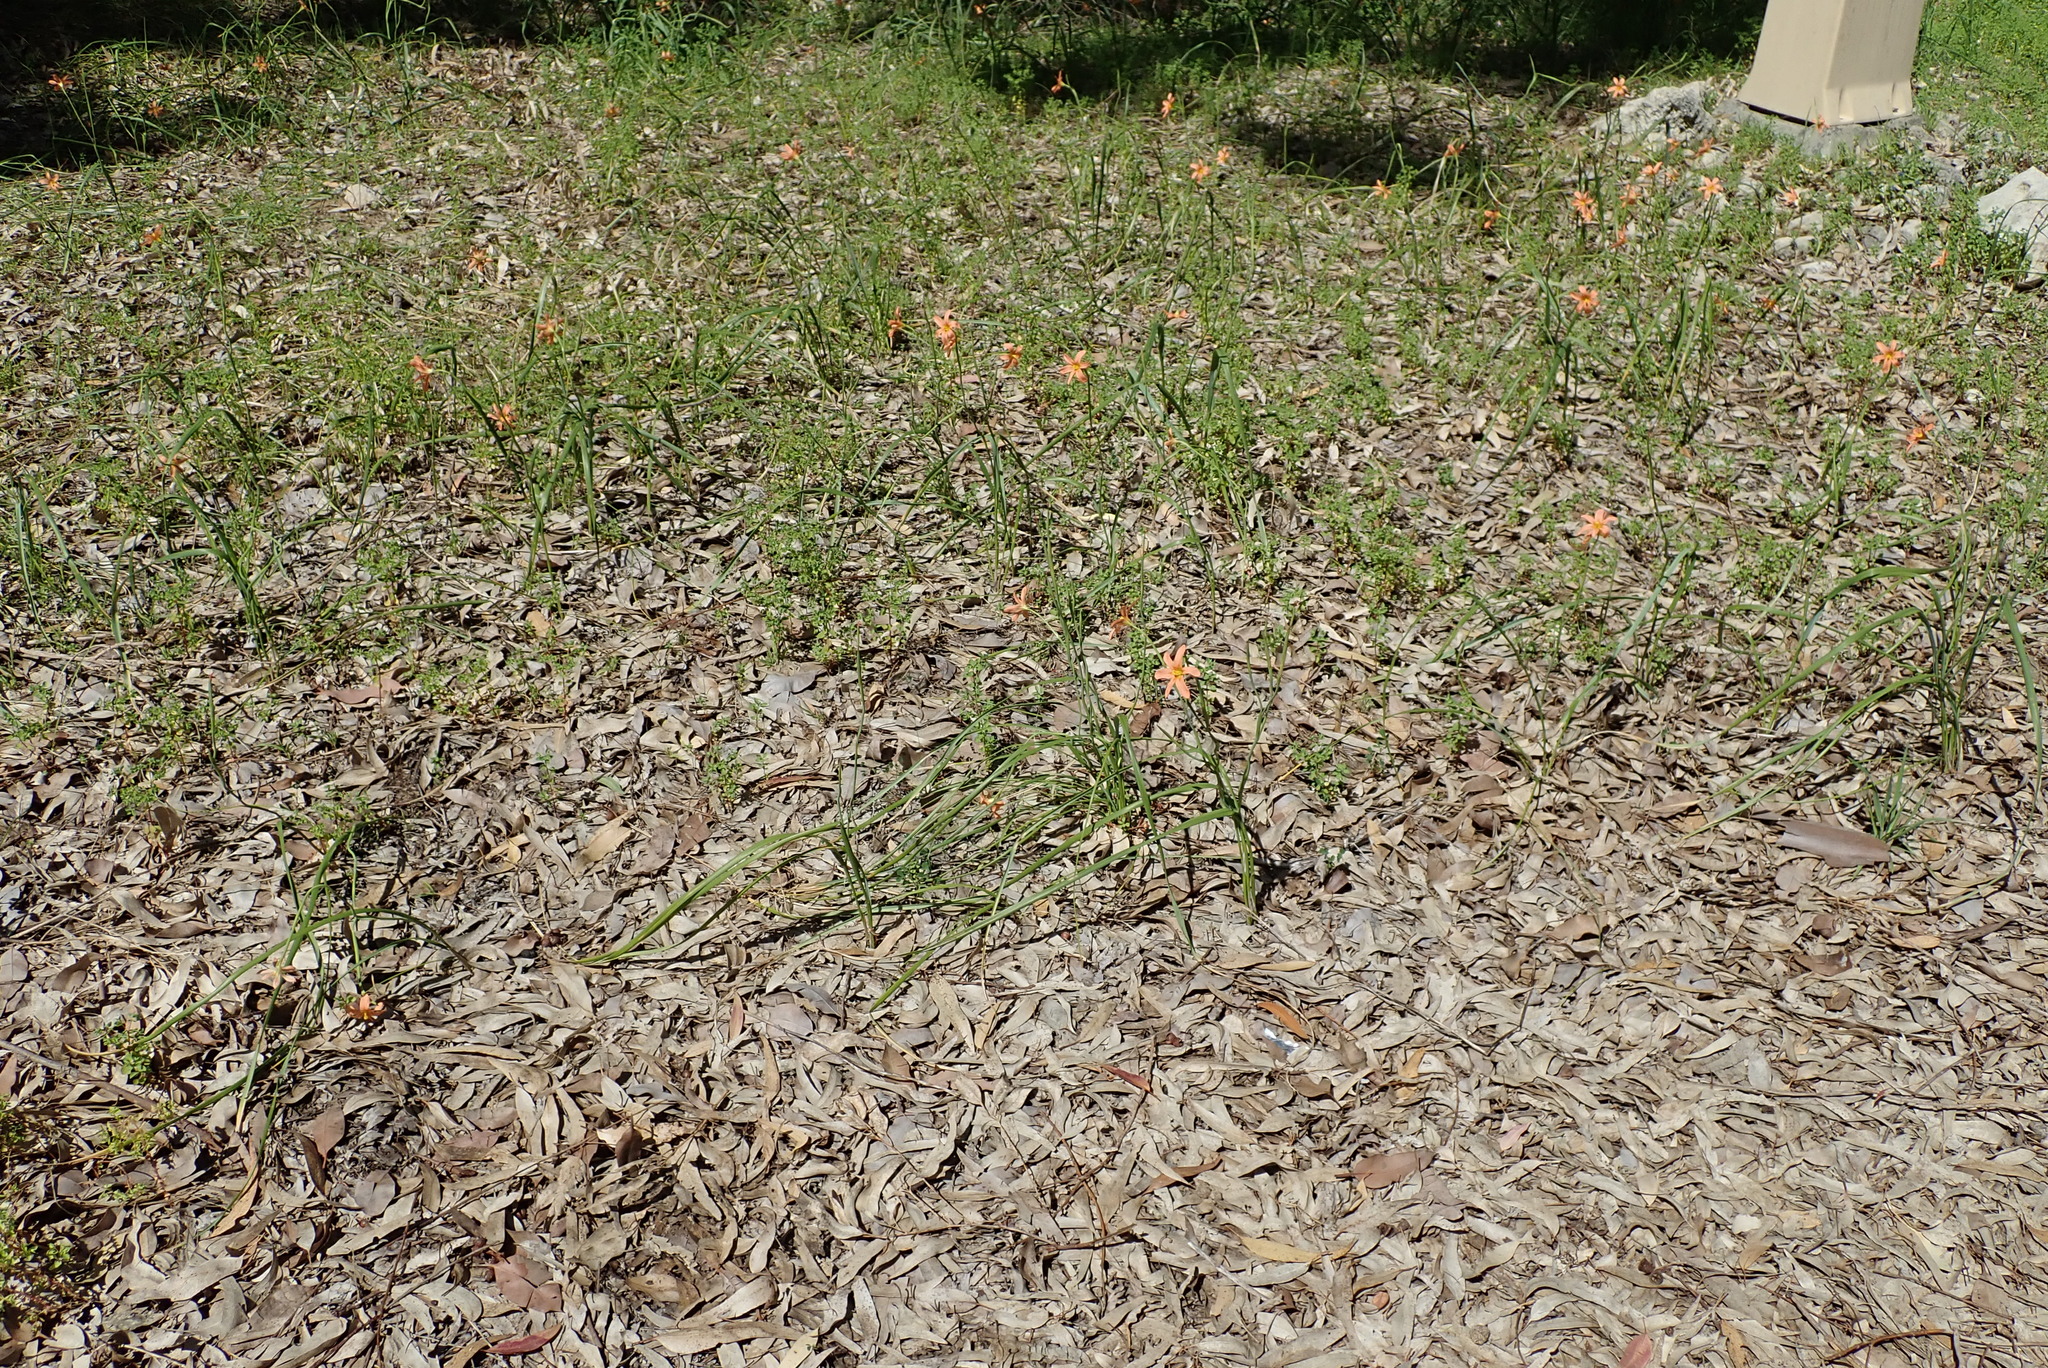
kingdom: Plantae
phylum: Tracheophyta
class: Liliopsida
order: Asparagales
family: Iridaceae
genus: Moraea
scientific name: Moraea miniata
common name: Two-leaf cape-tulip
